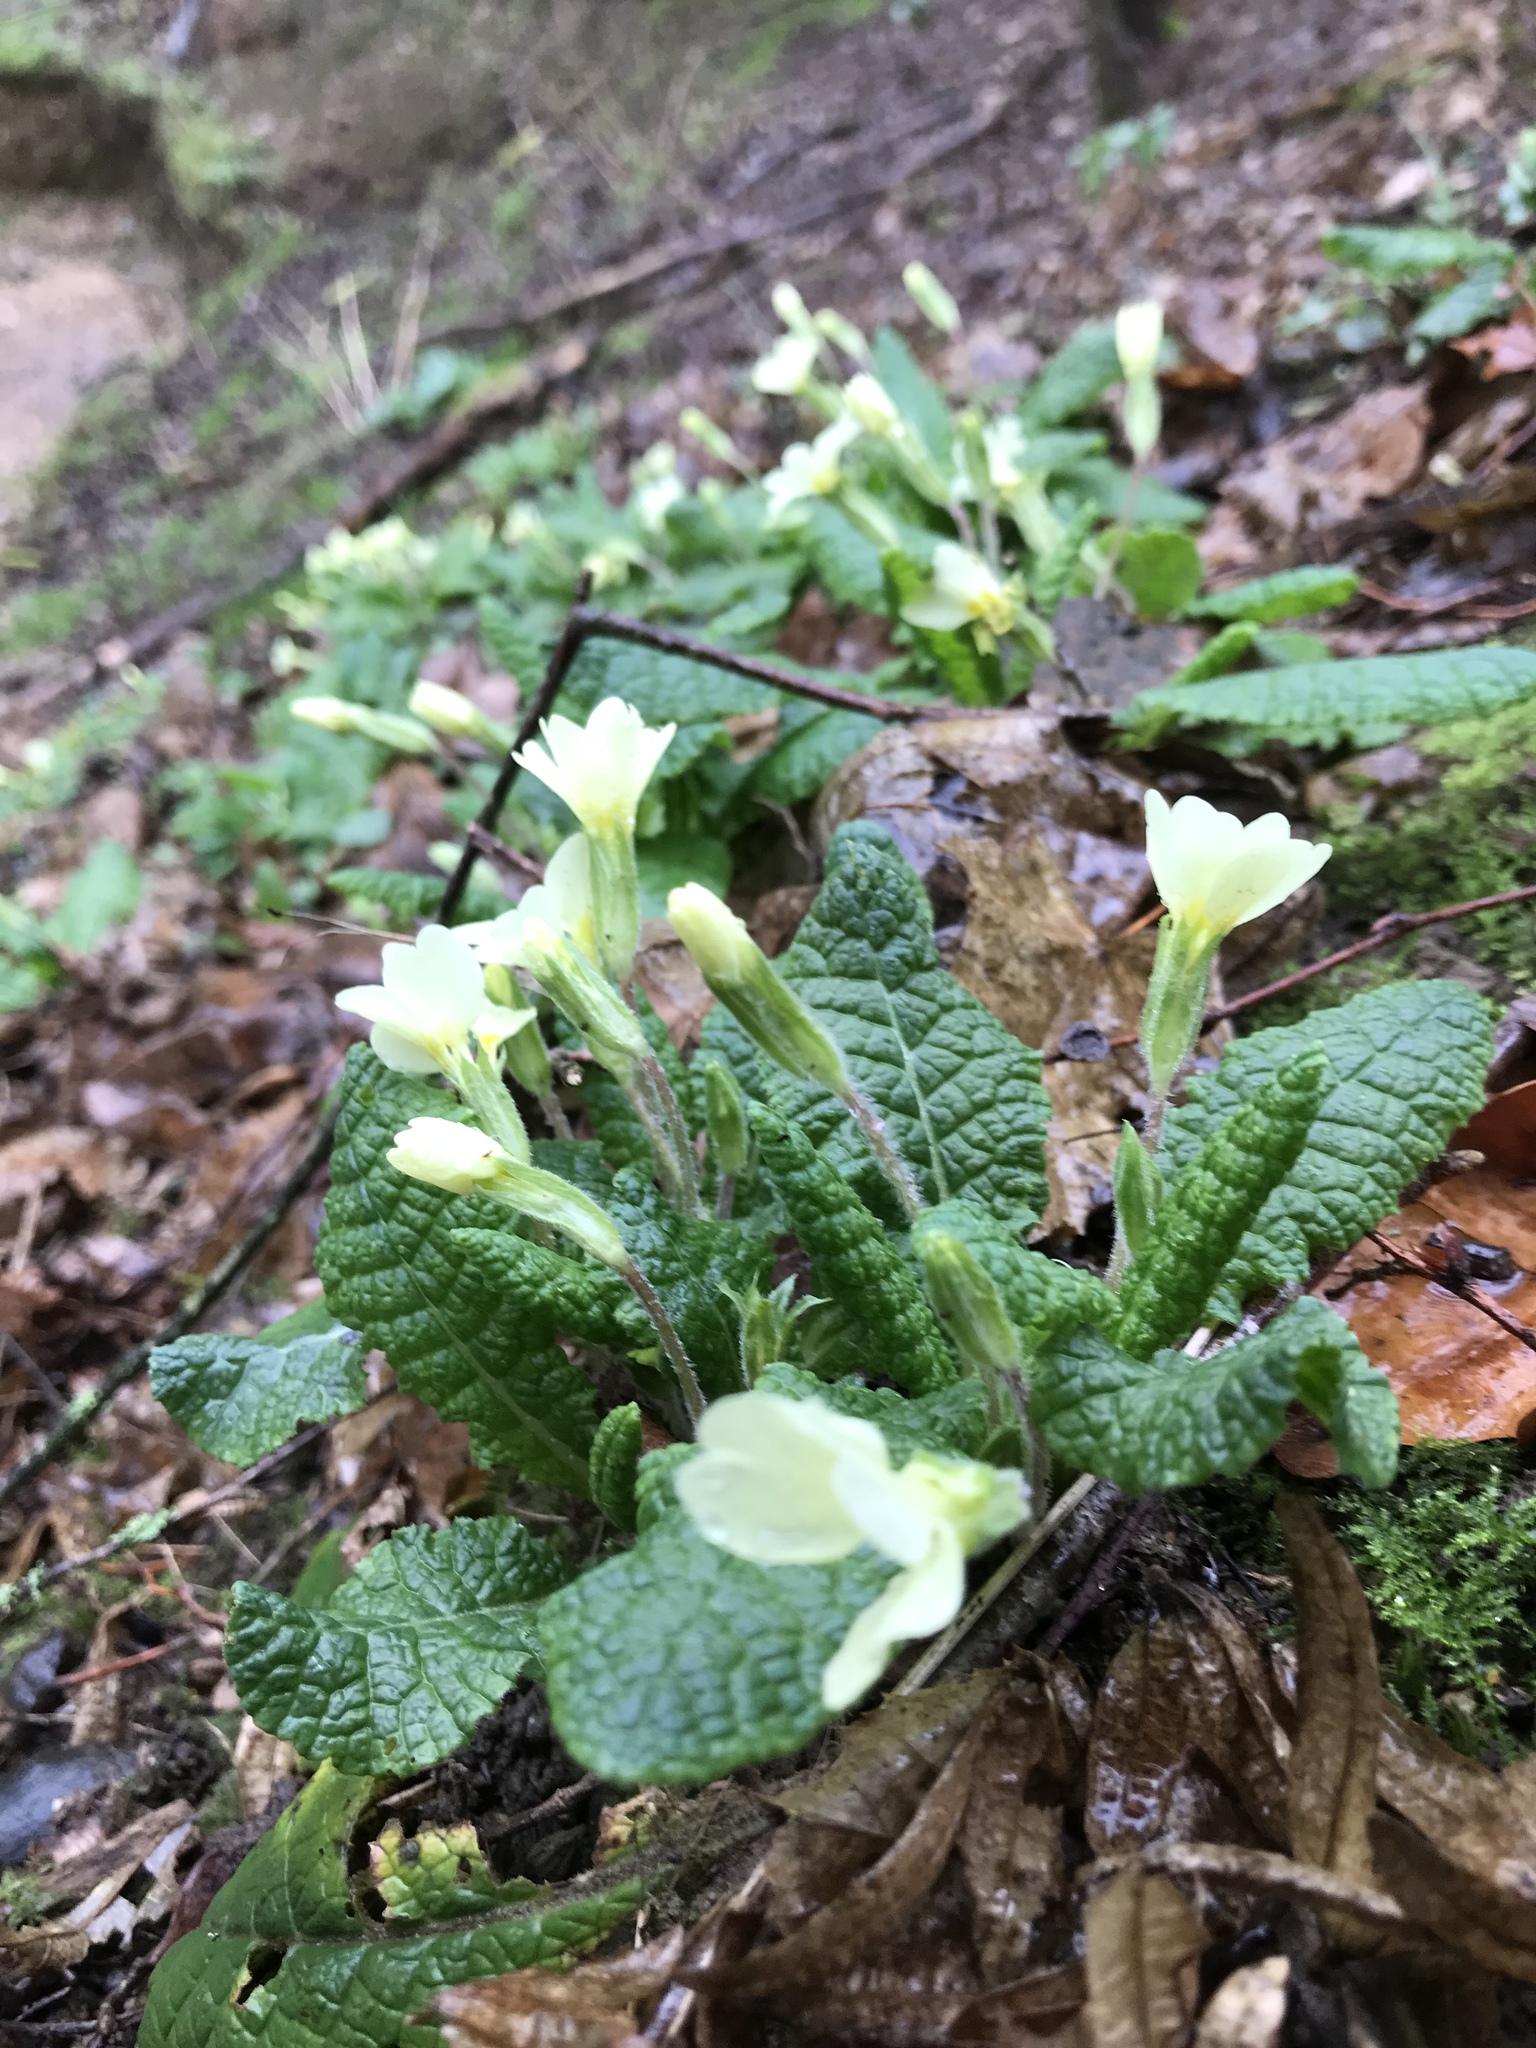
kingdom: Plantae
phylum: Tracheophyta
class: Magnoliopsida
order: Ericales
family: Primulaceae
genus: Primula
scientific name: Primula vulgaris
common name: Primrose
